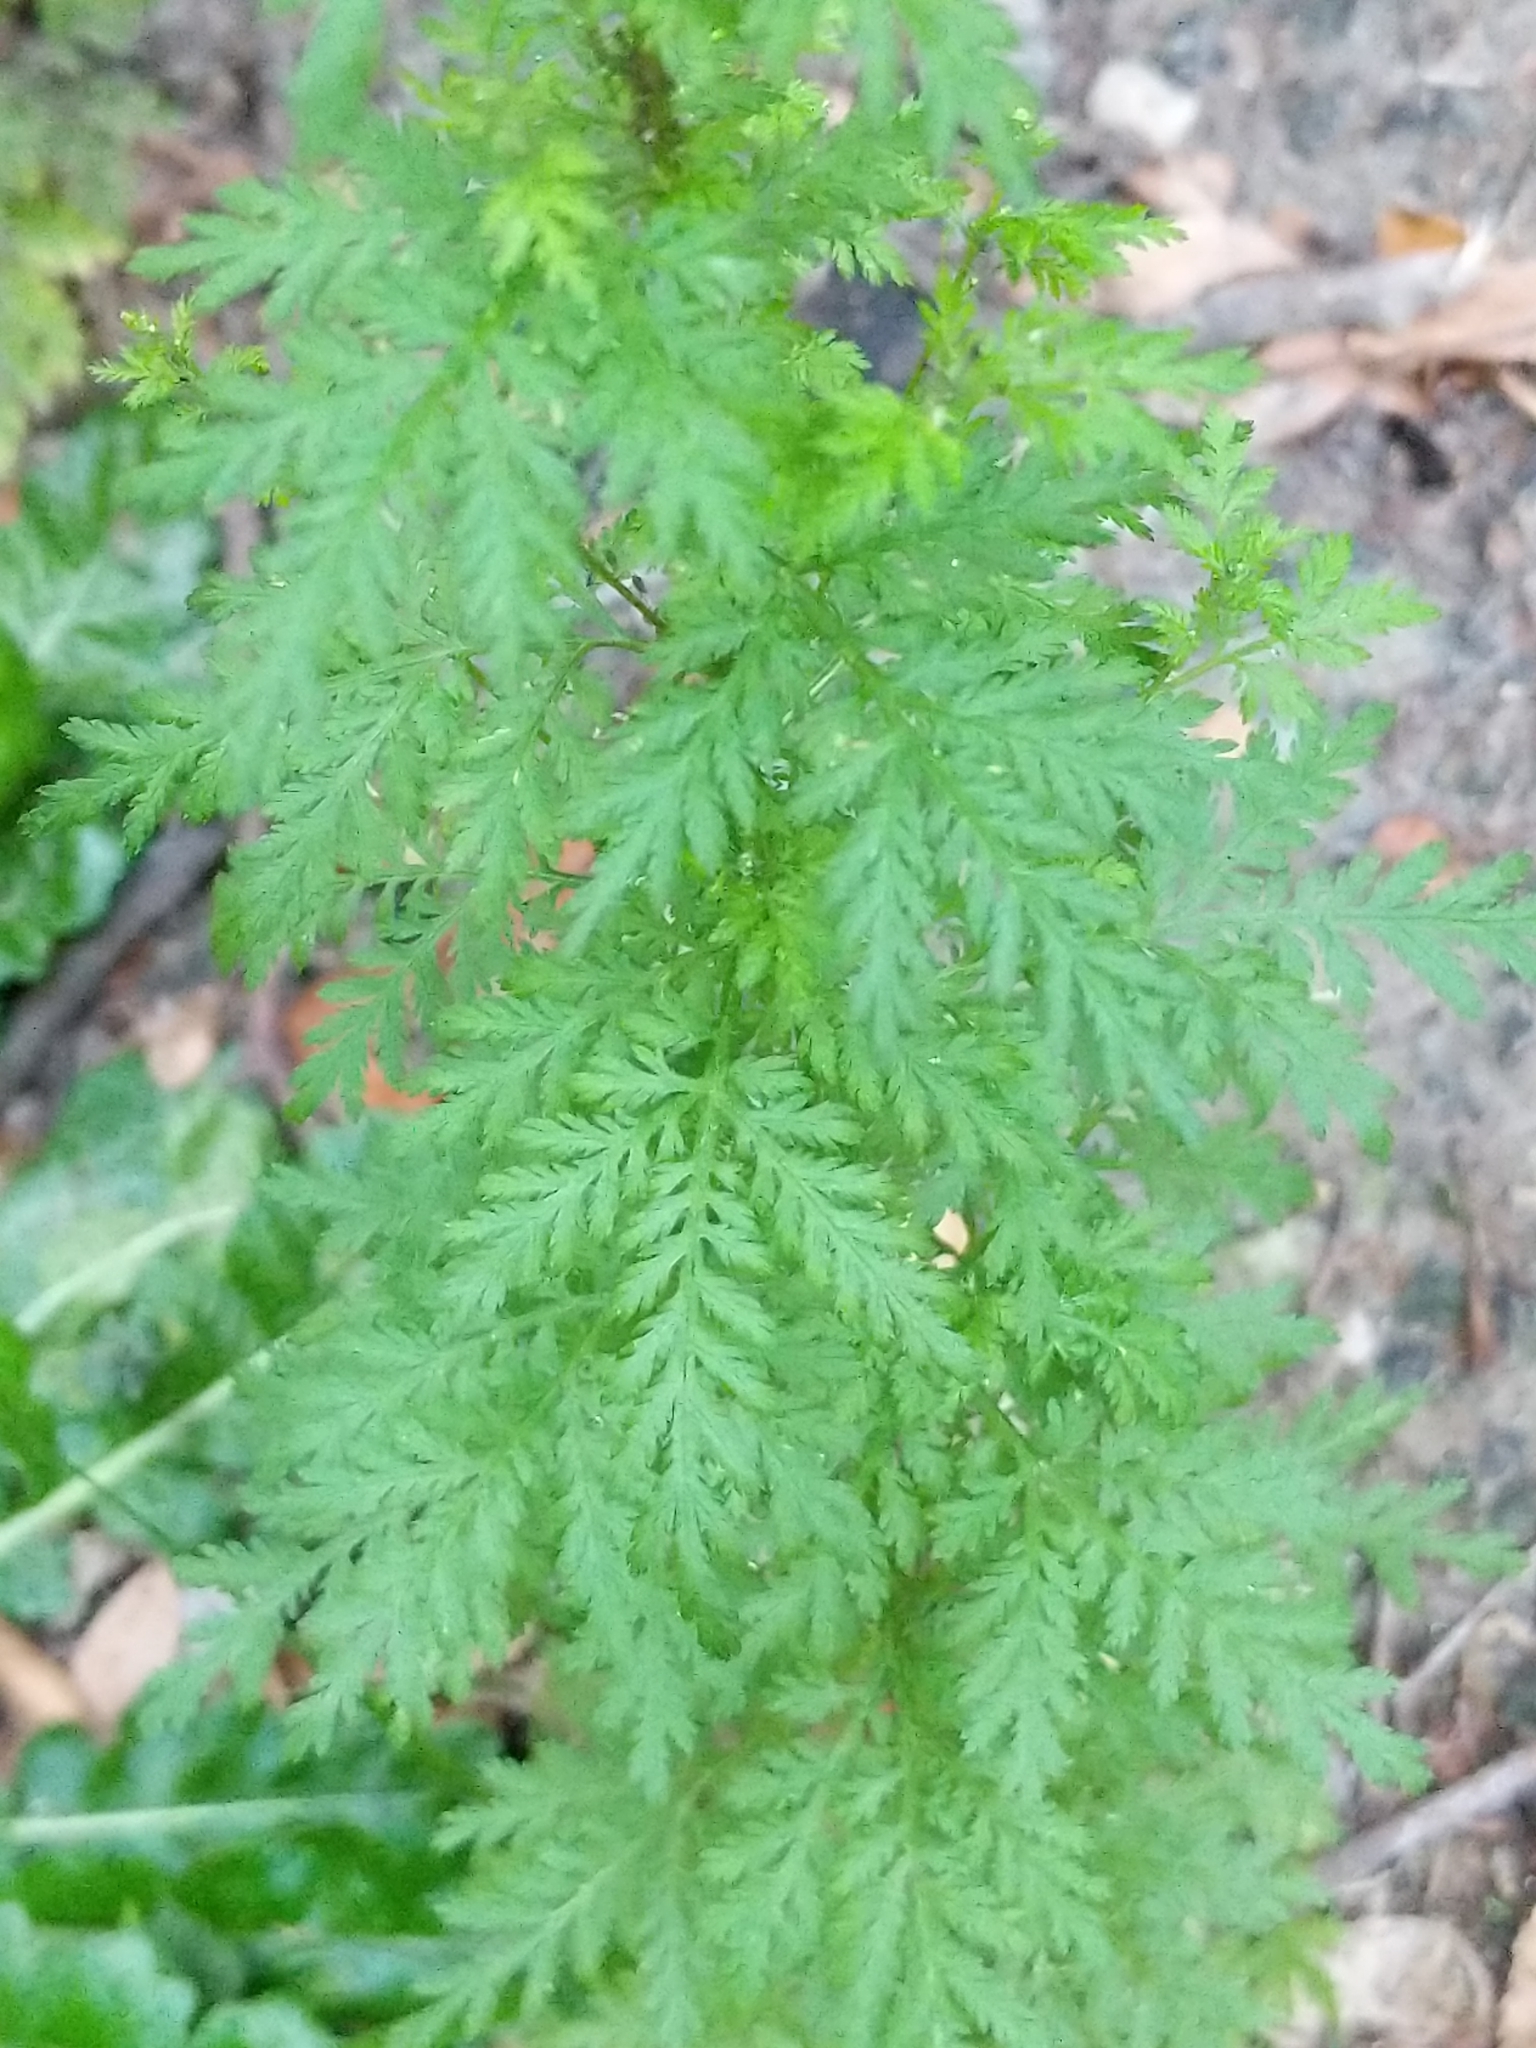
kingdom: Plantae
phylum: Tracheophyta
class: Magnoliopsida
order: Asterales
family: Asteraceae
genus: Artemisia
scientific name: Artemisia annua
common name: Sweet sagewort
